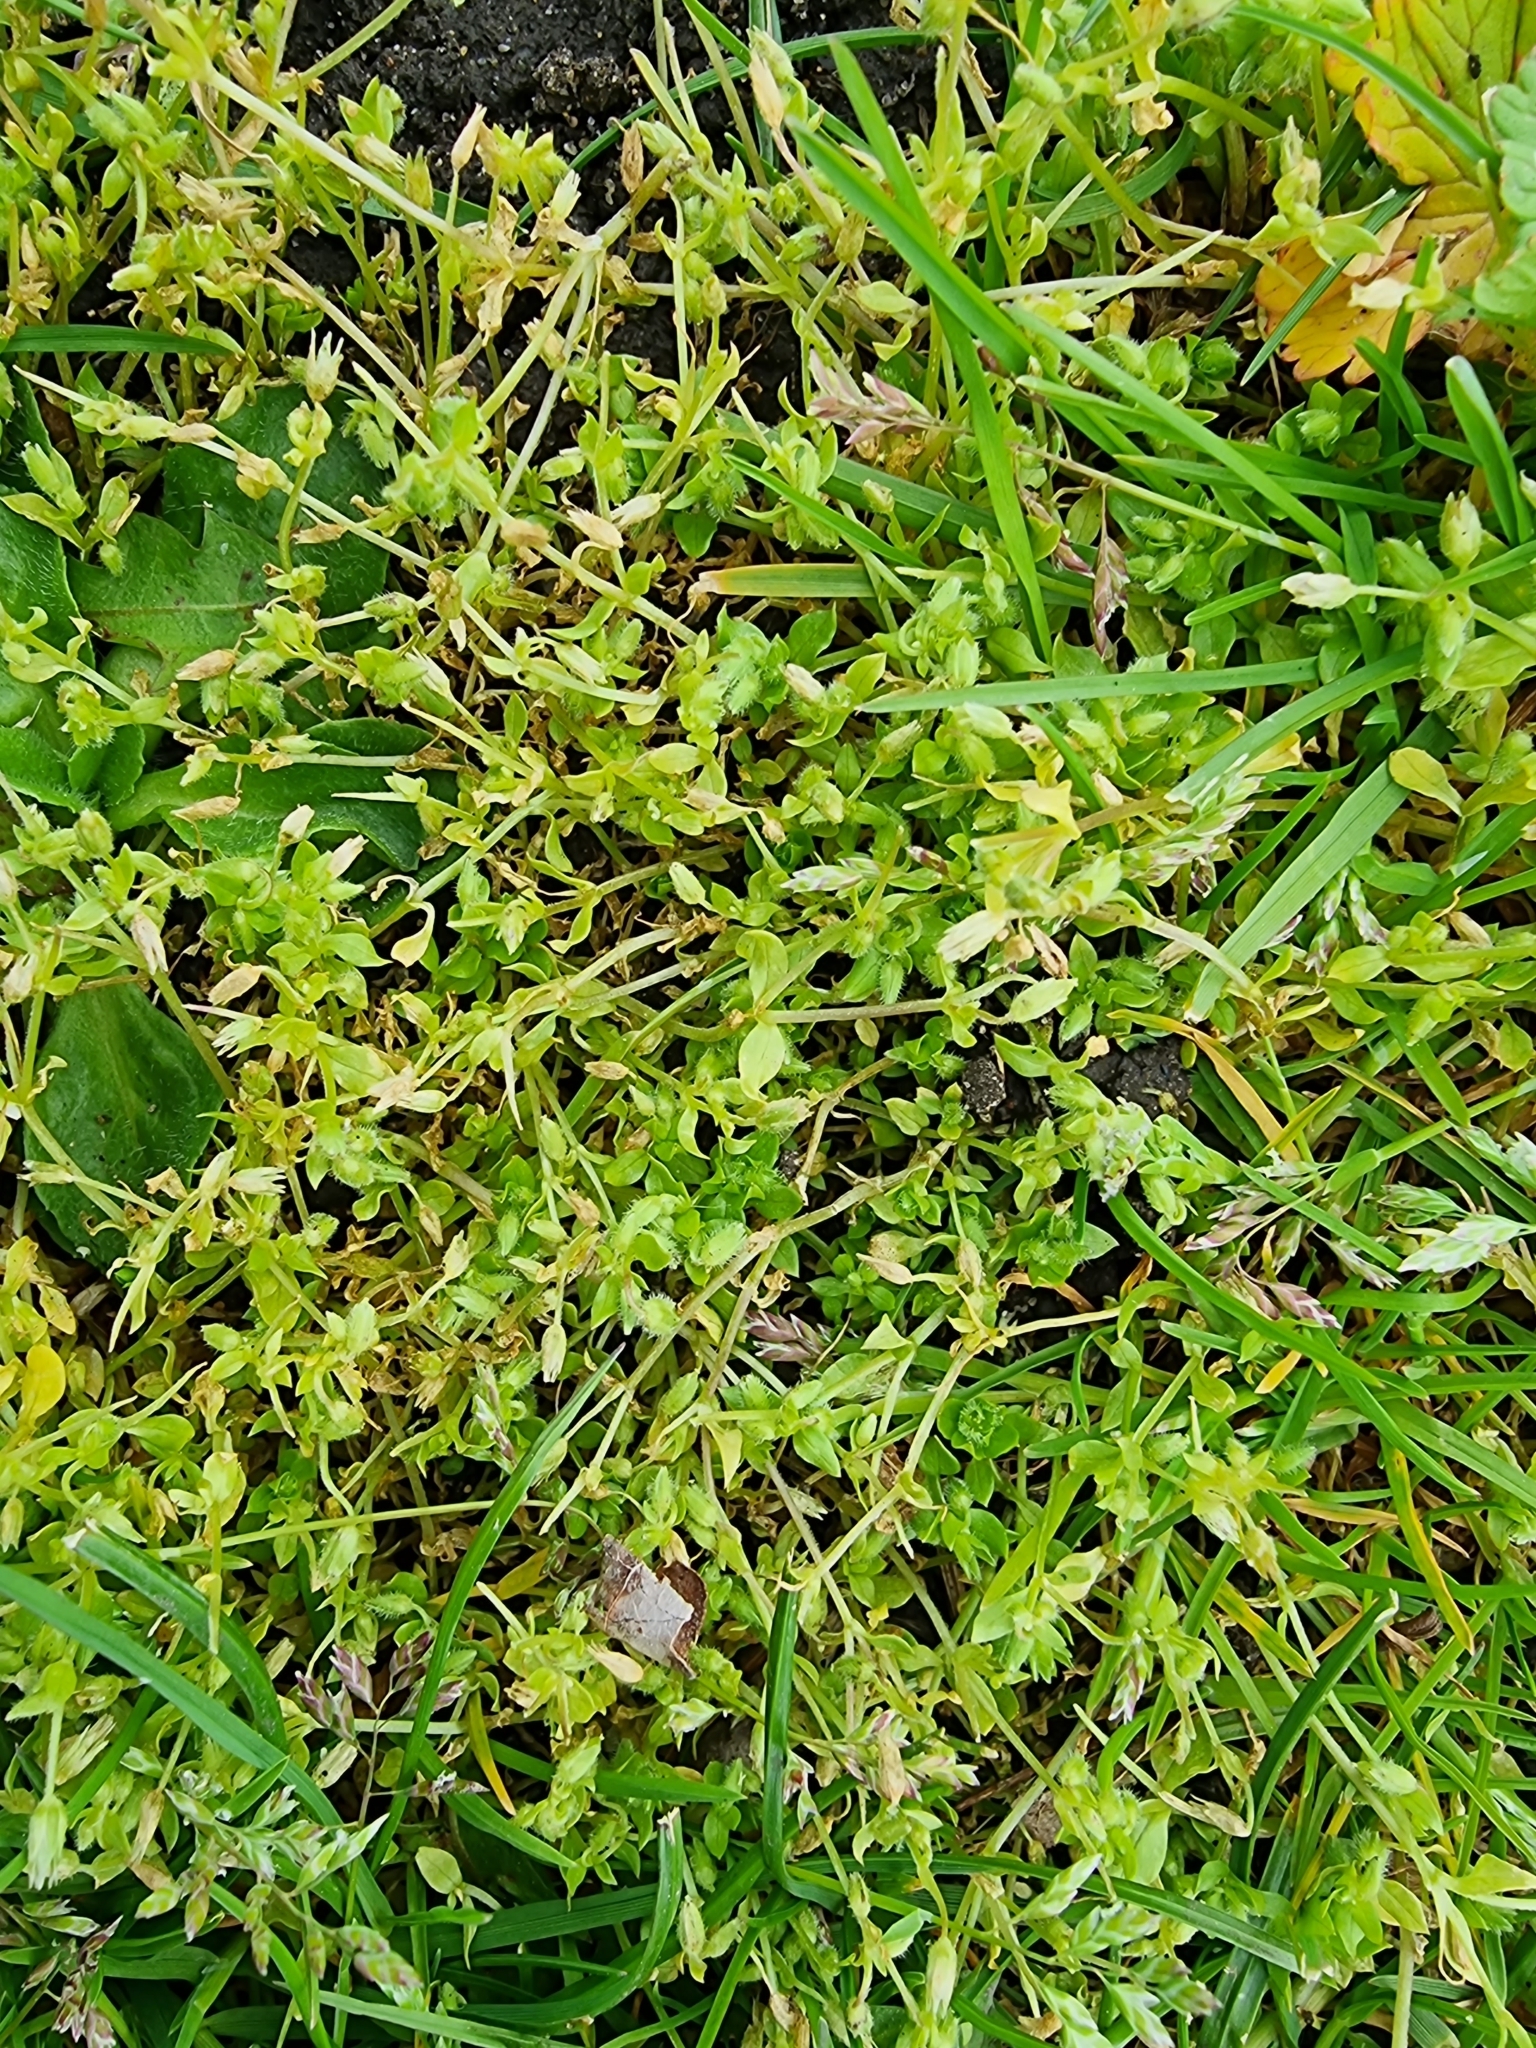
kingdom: Plantae
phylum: Tracheophyta
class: Magnoliopsida
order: Caryophyllales
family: Caryophyllaceae
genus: Stellaria
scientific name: Stellaria apetala
